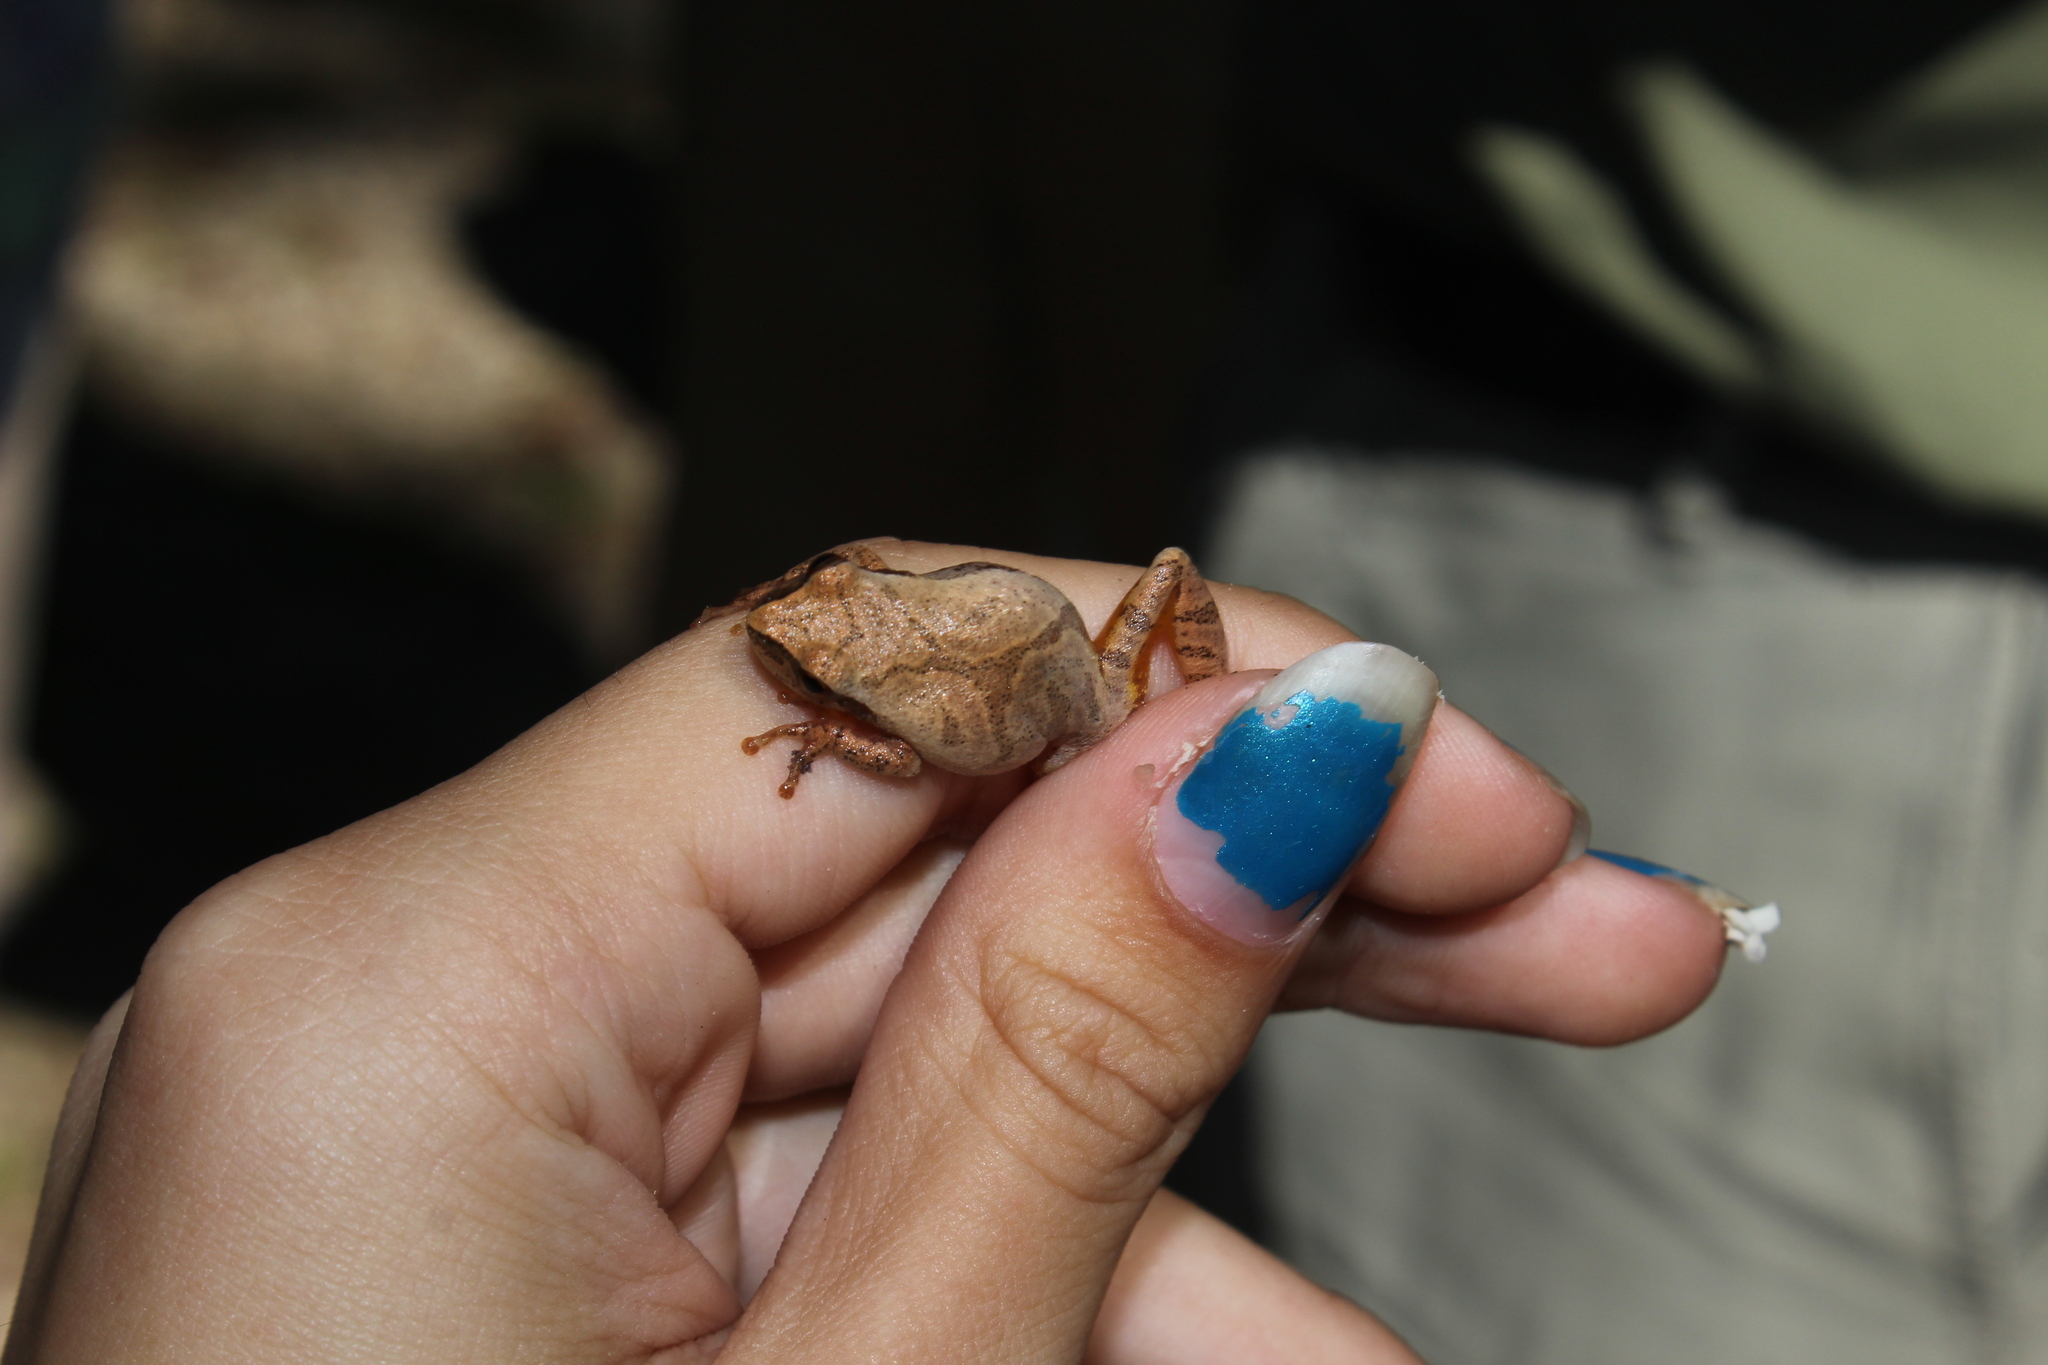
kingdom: Animalia
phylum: Chordata
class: Amphibia
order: Anura
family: Hylidae
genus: Pseudacris
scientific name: Pseudacris crucifer
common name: Spring peeper
